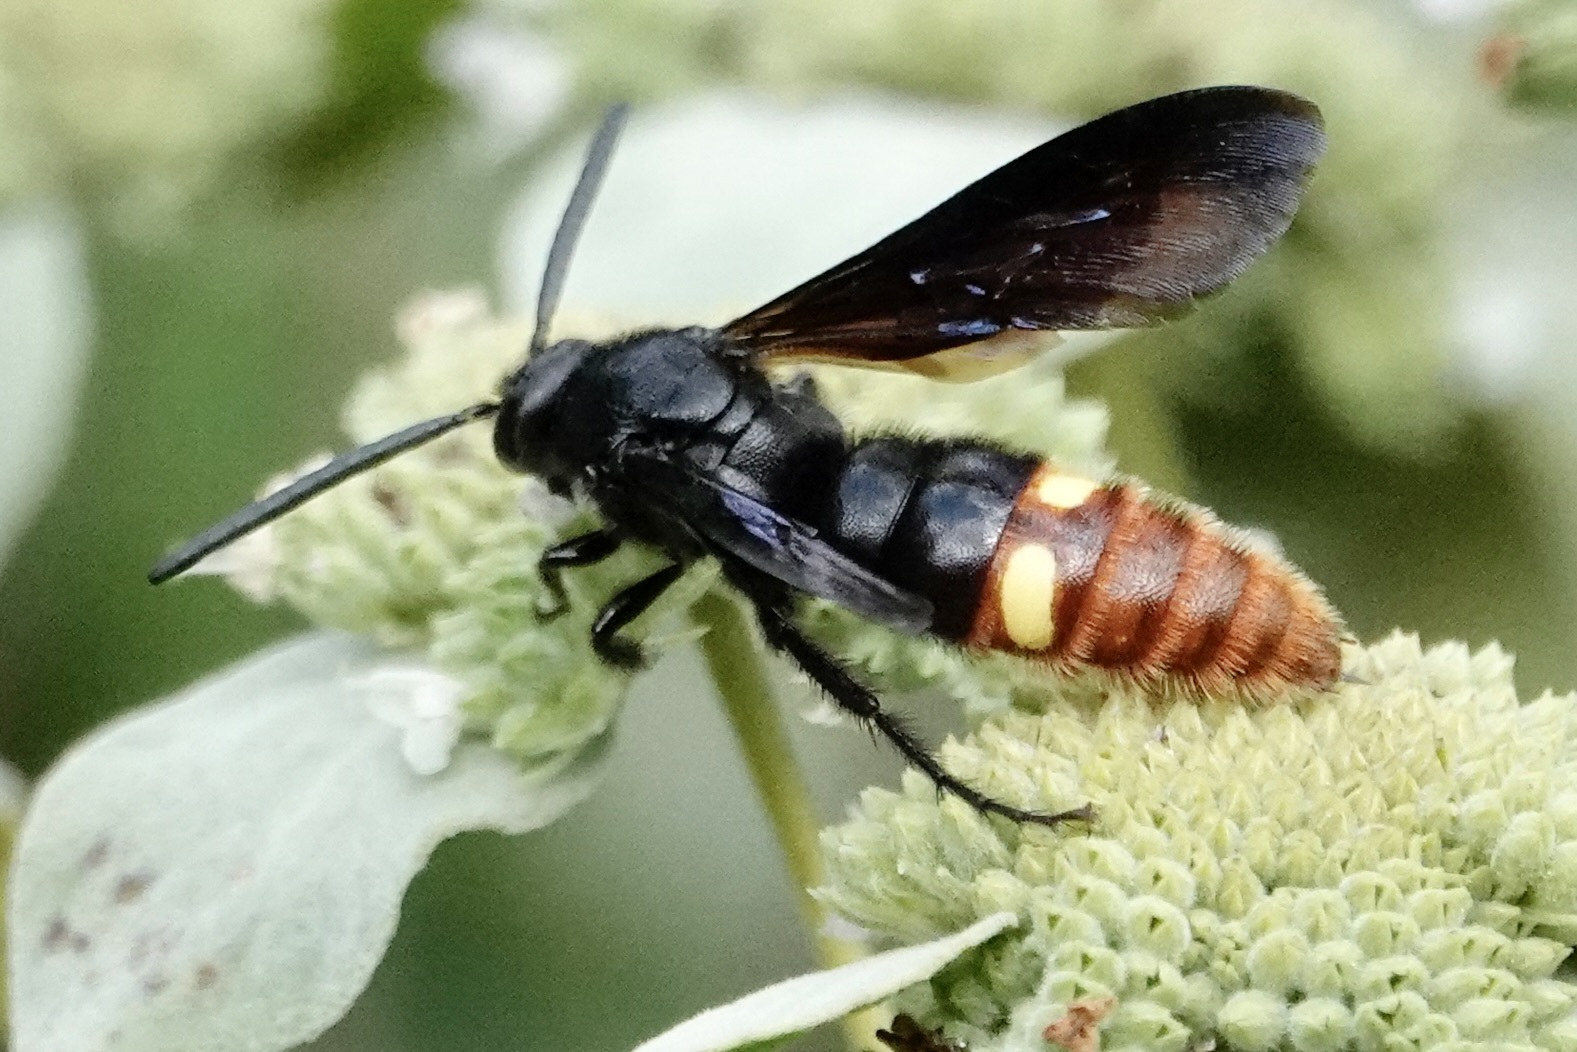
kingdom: Animalia
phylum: Arthropoda
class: Insecta
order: Hymenoptera
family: Scoliidae
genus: Scolia
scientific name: Scolia dubia
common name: Blue-winged scoliid wasp
